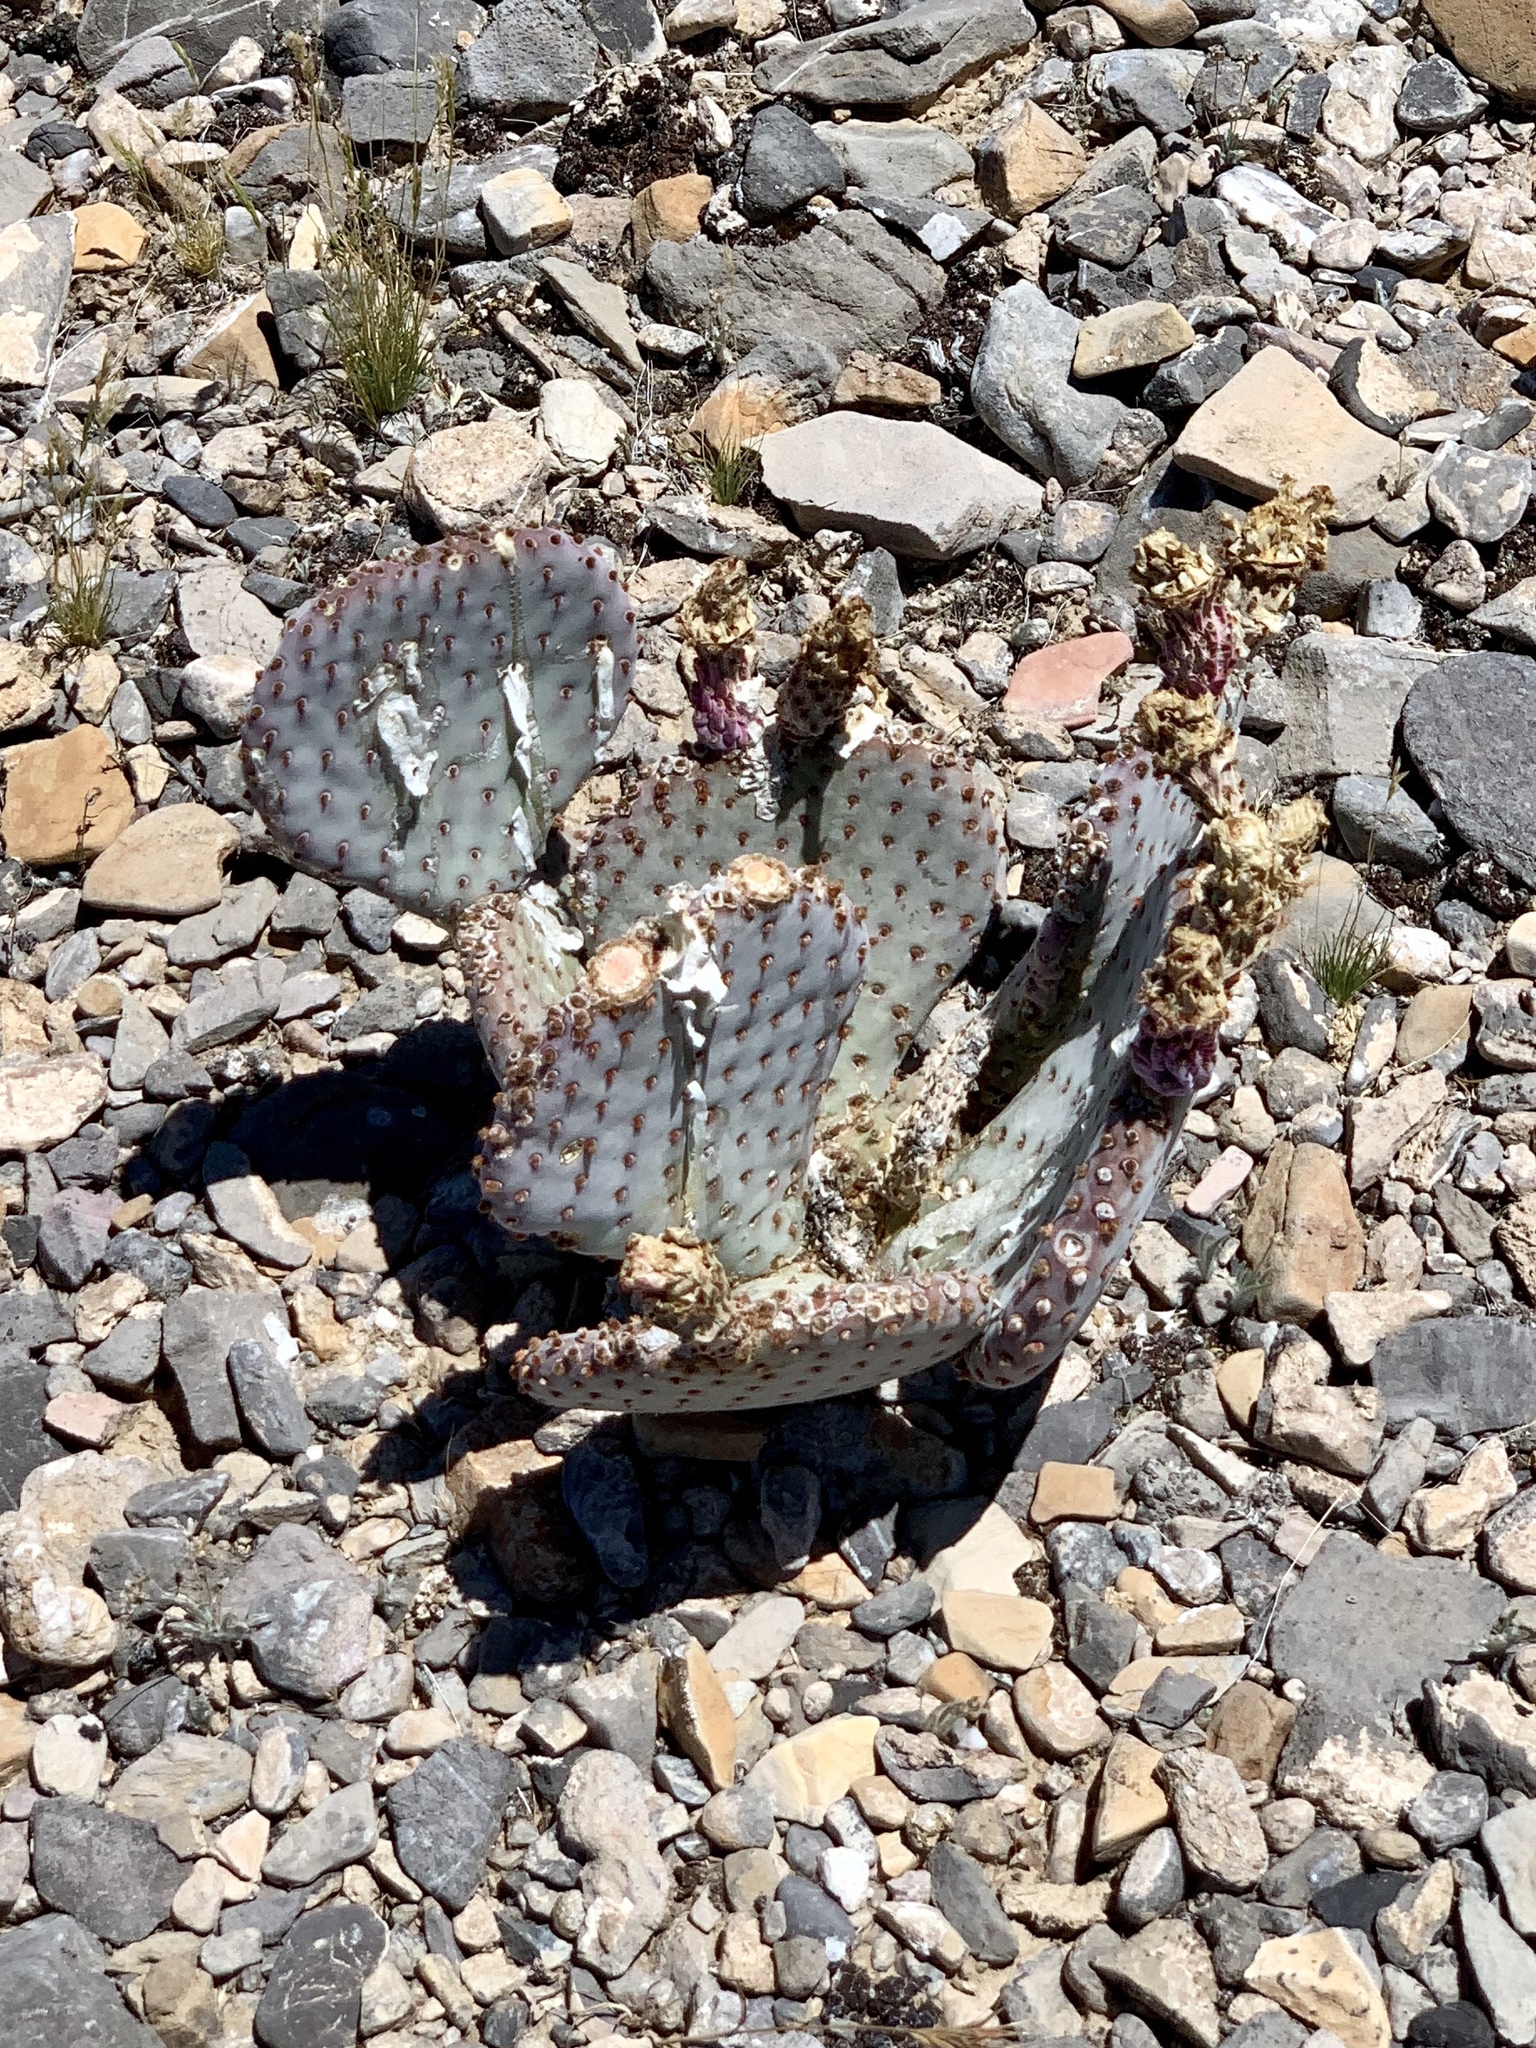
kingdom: Plantae
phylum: Tracheophyta
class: Magnoliopsida
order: Caryophyllales
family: Cactaceae
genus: Opuntia
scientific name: Opuntia basilaris
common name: Beavertail prickly-pear
